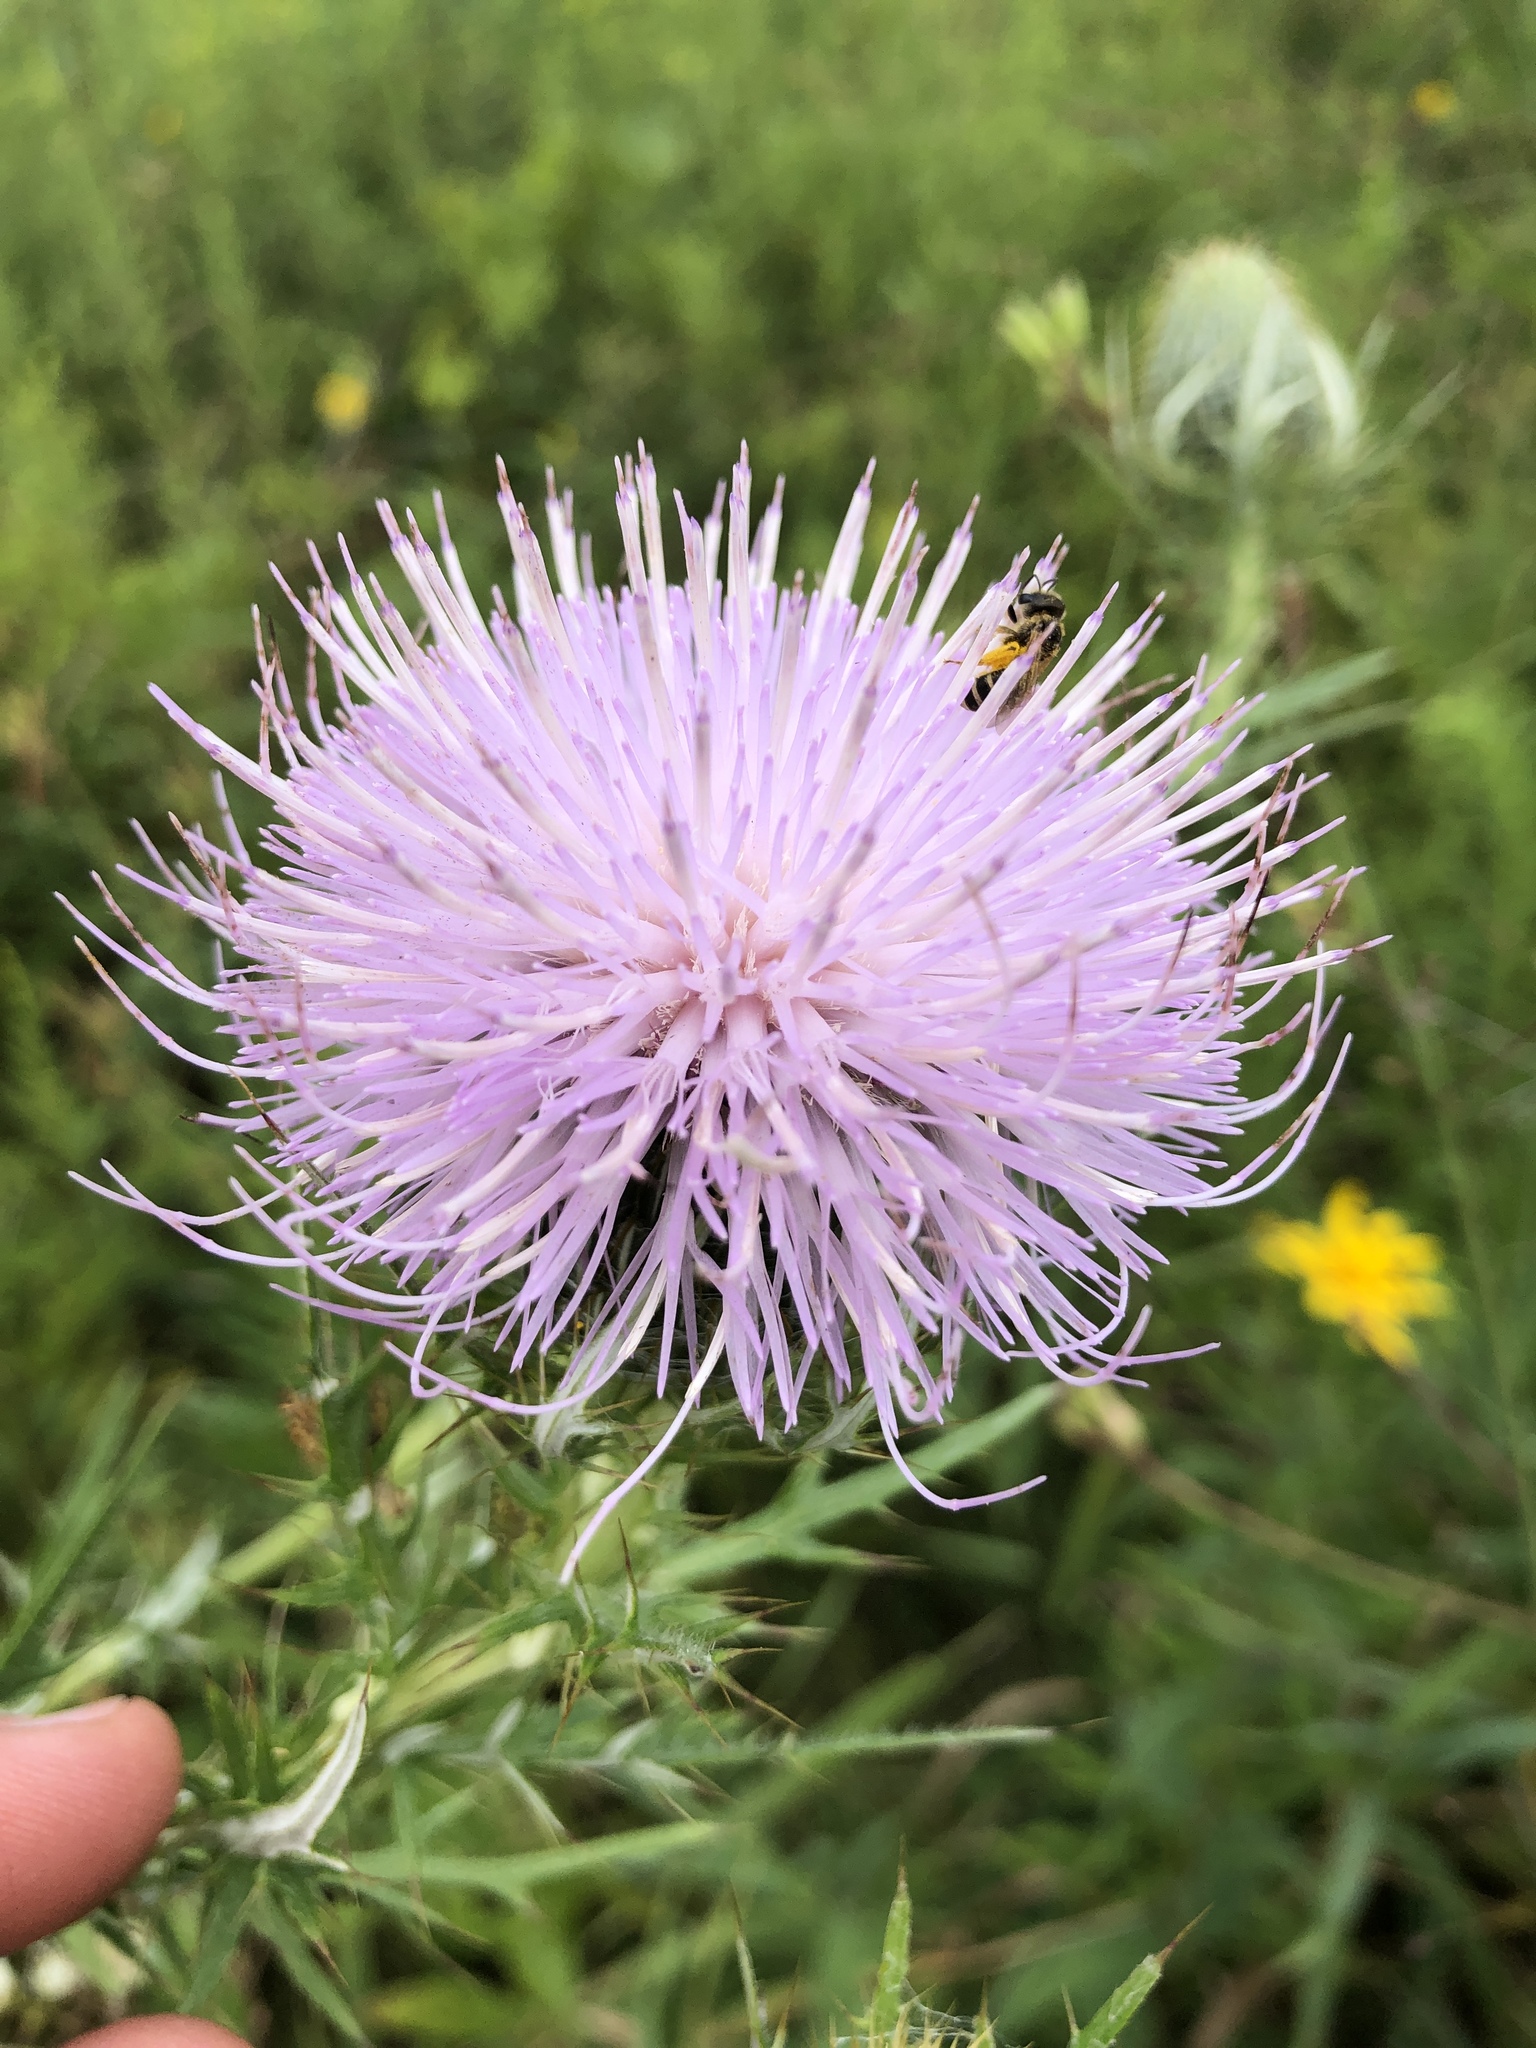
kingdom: Plantae
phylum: Tracheophyta
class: Magnoliopsida
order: Asterales
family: Asteraceae
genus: Cirsium
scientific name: Cirsium discolor
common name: Field thistle
